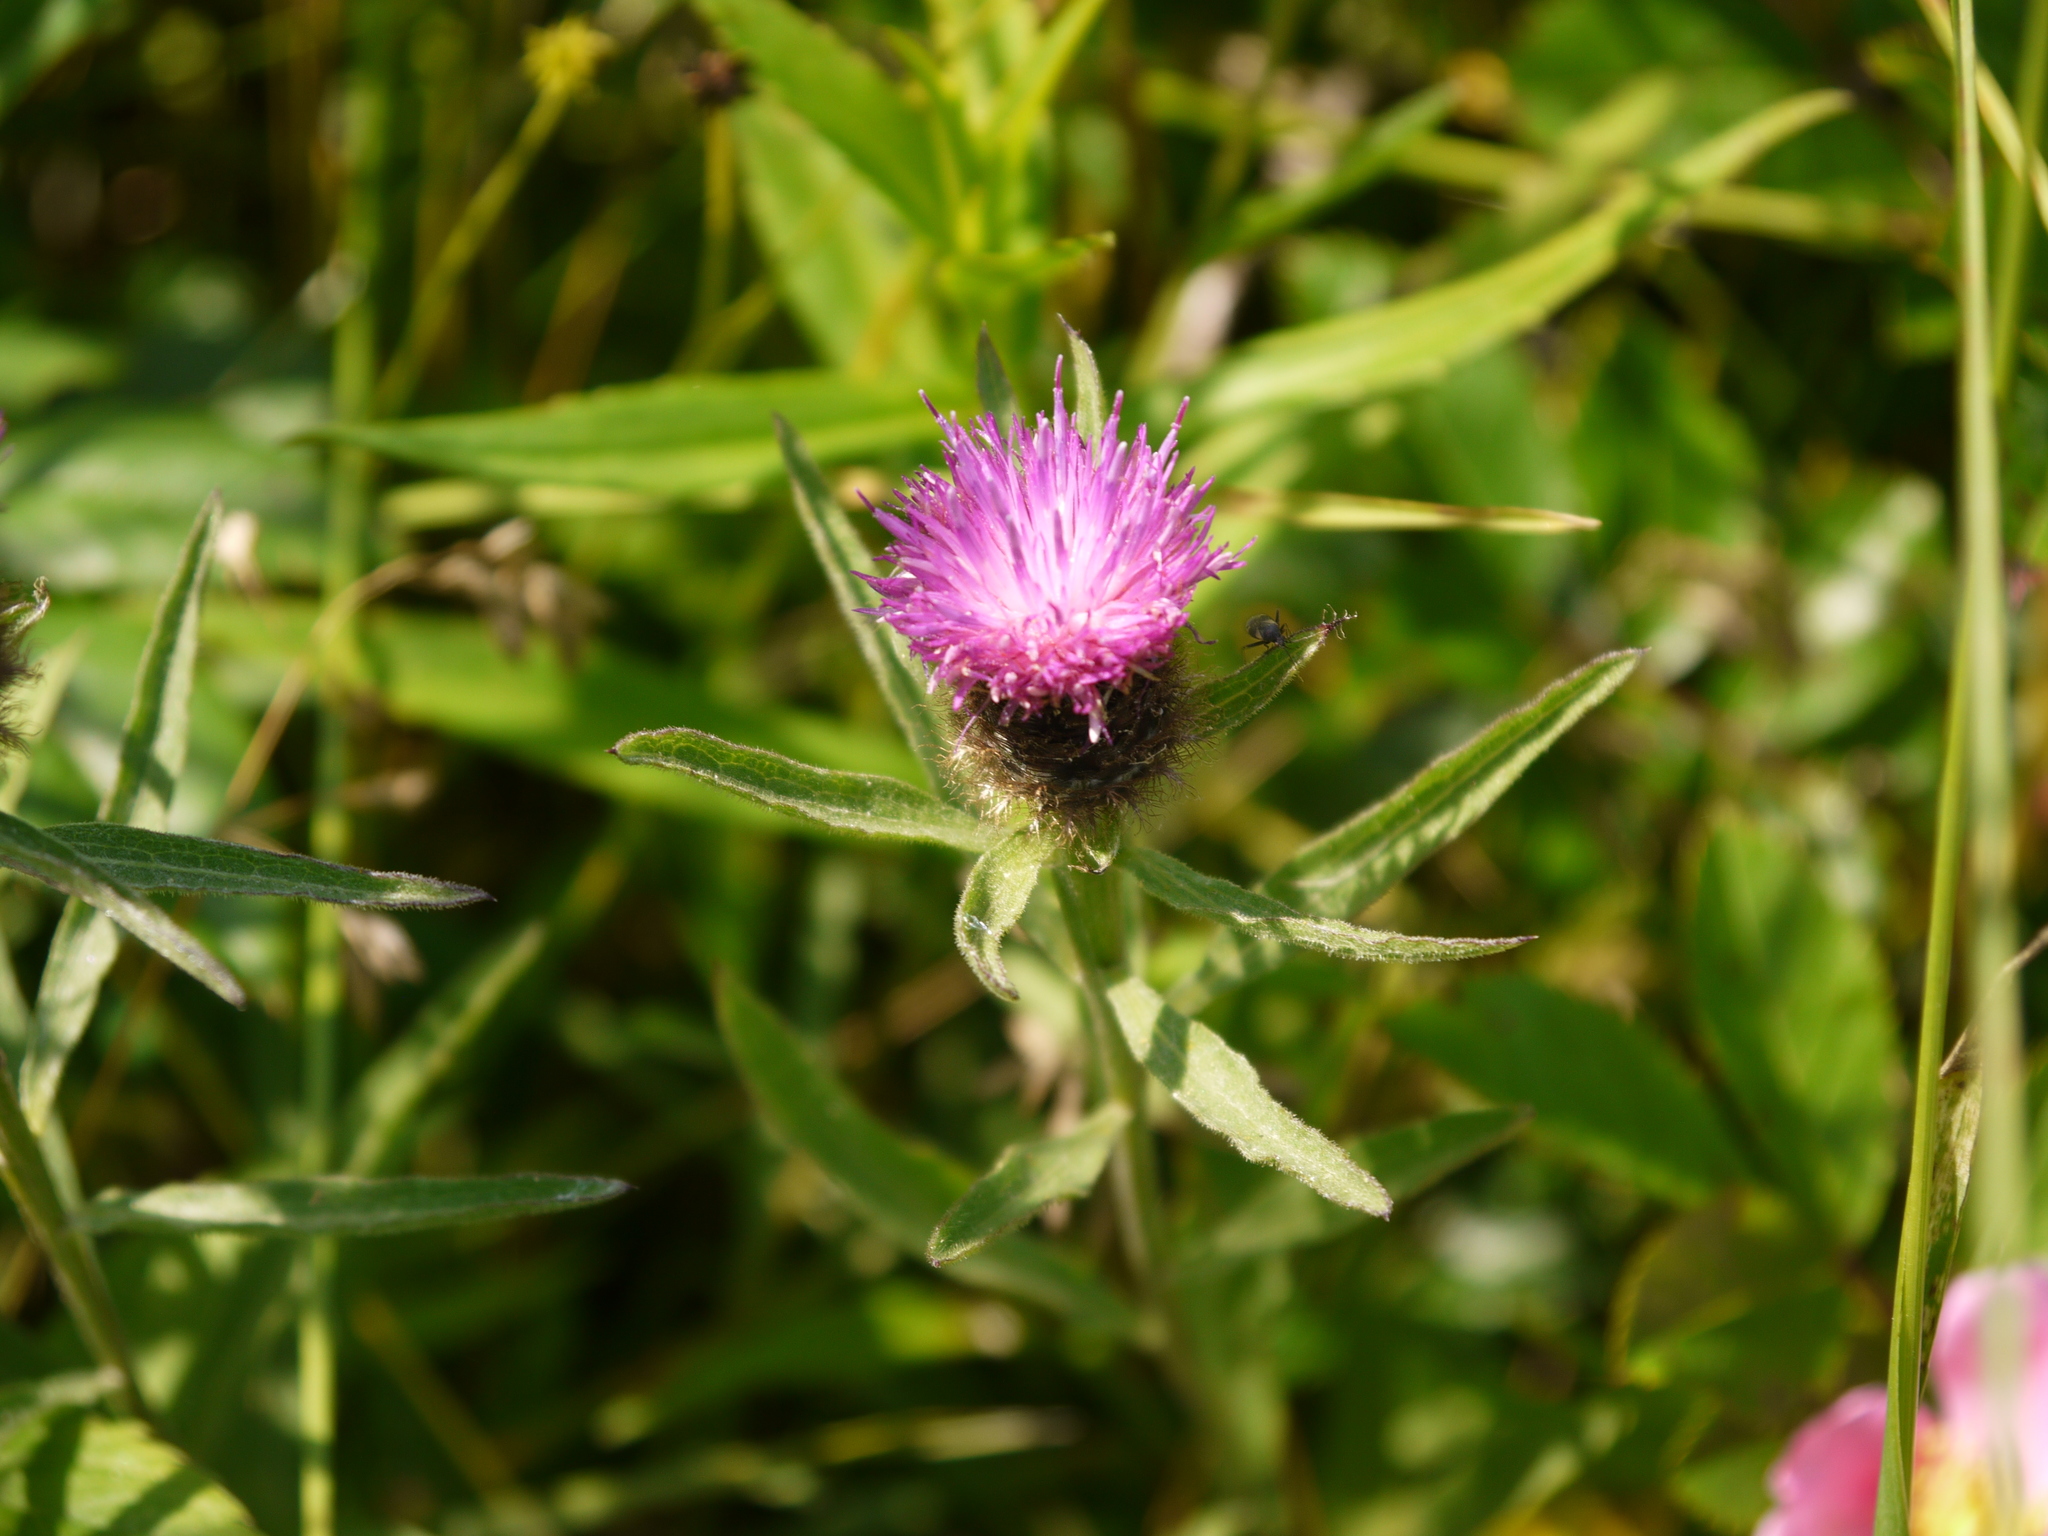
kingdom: Plantae
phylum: Tracheophyta
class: Magnoliopsida
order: Asterales
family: Asteraceae
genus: Centaurea
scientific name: Centaurea nigra
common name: Lesser knapweed
